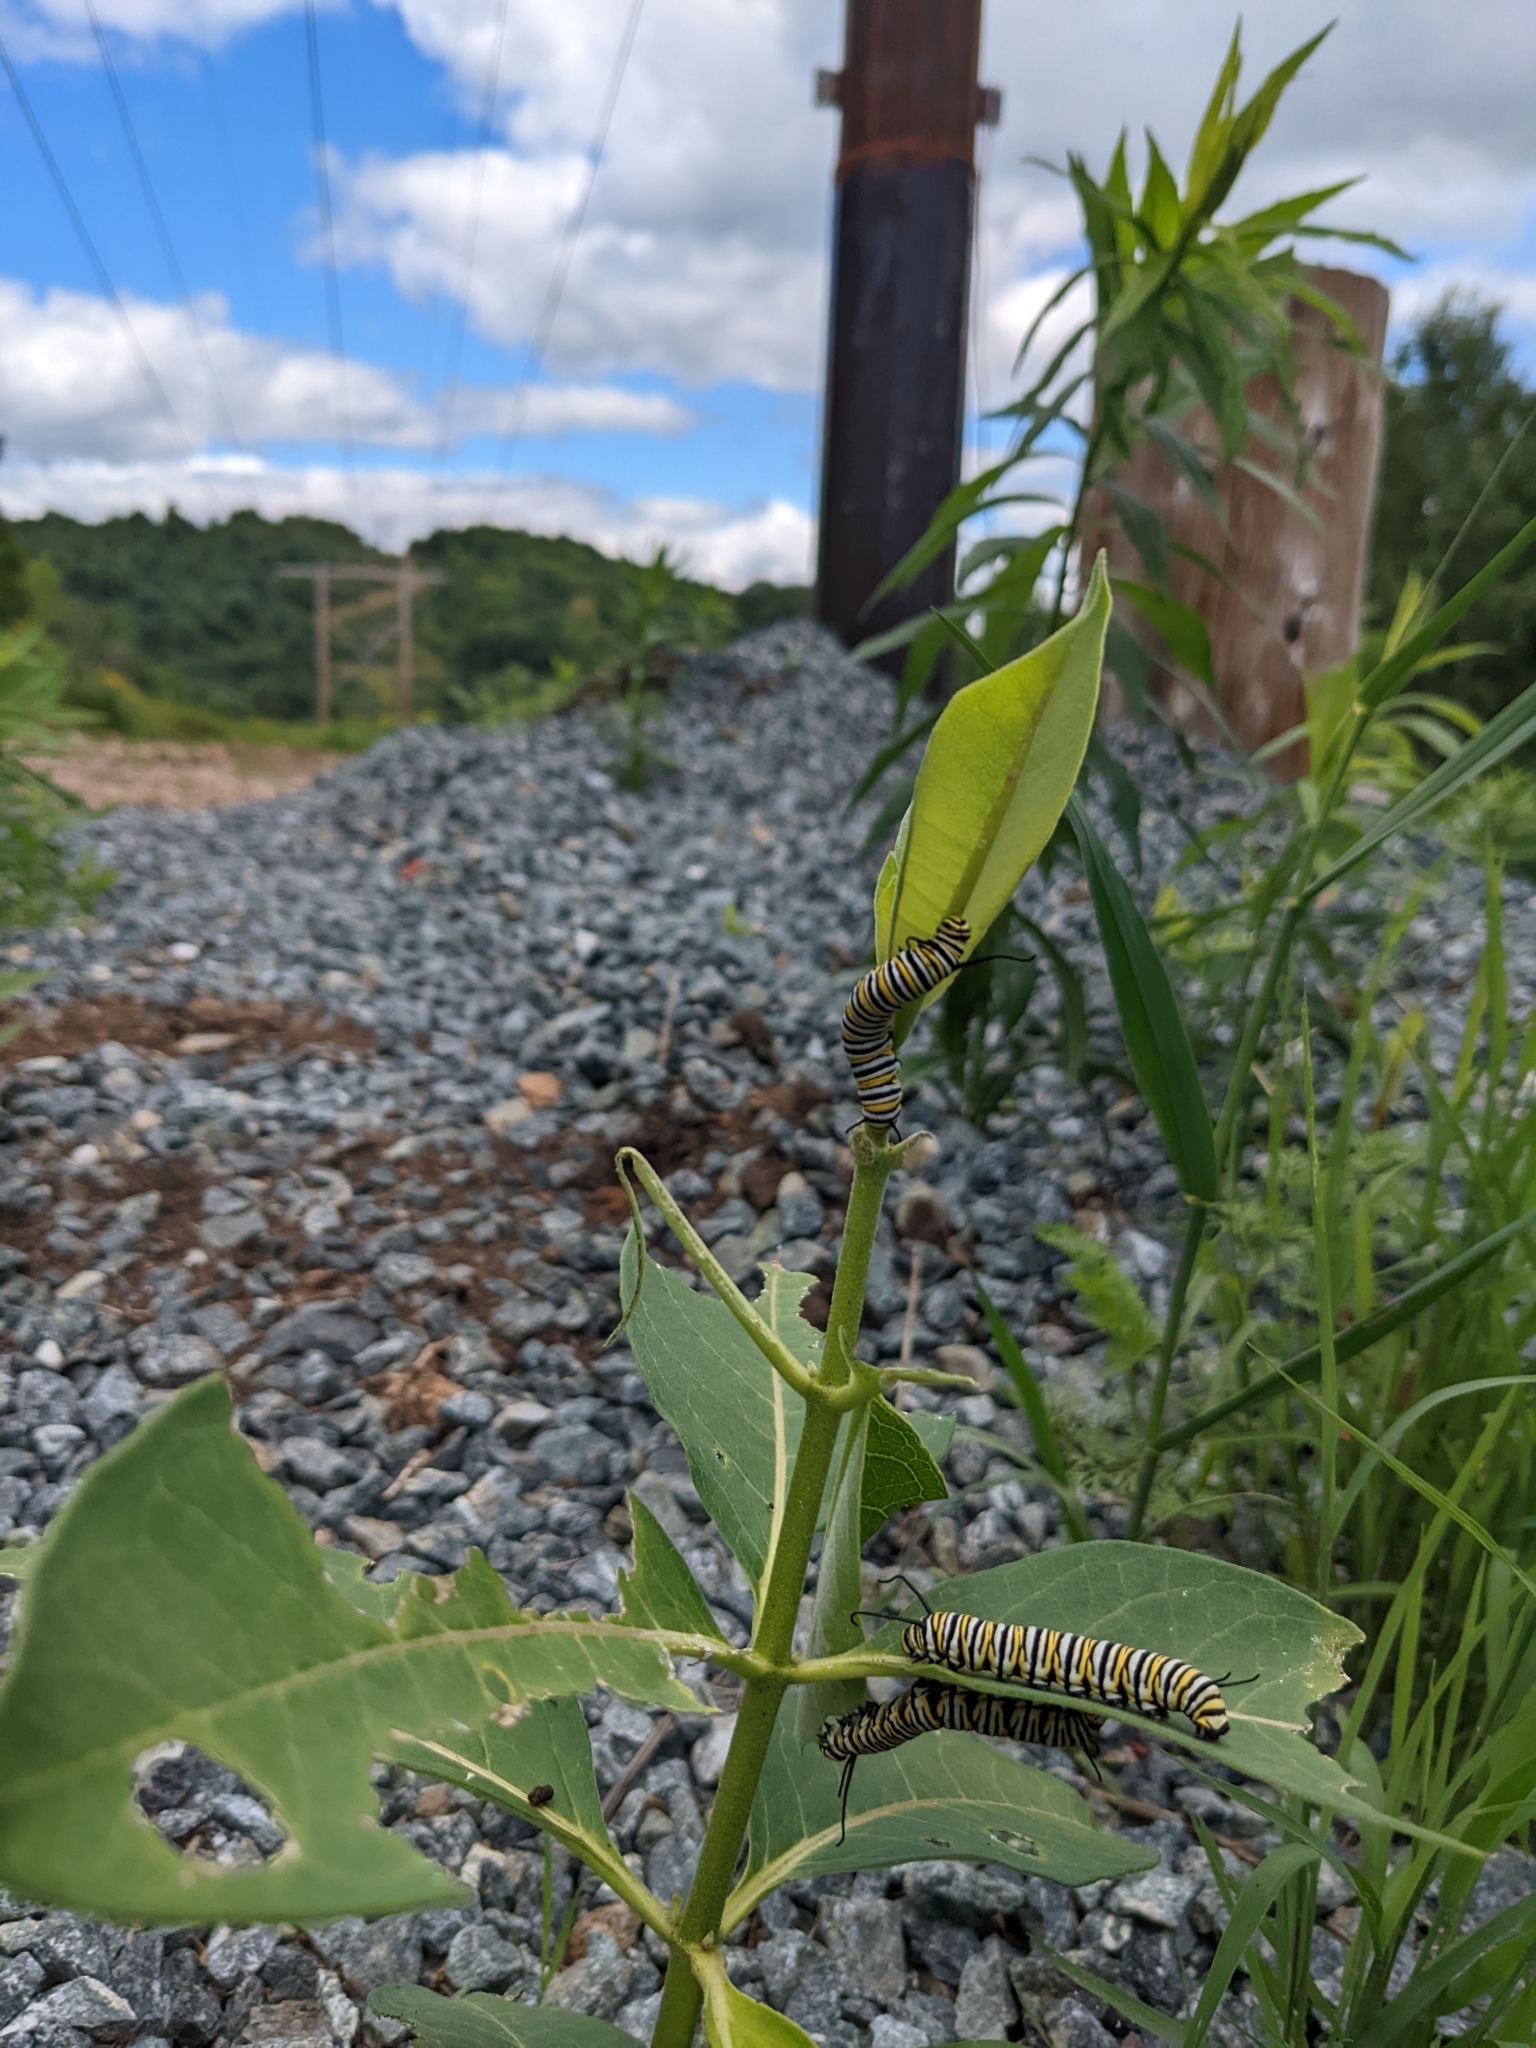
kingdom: Animalia
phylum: Arthropoda
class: Insecta
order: Lepidoptera
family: Nymphalidae
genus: Danaus
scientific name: Danaus plexippus
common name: Monarch
